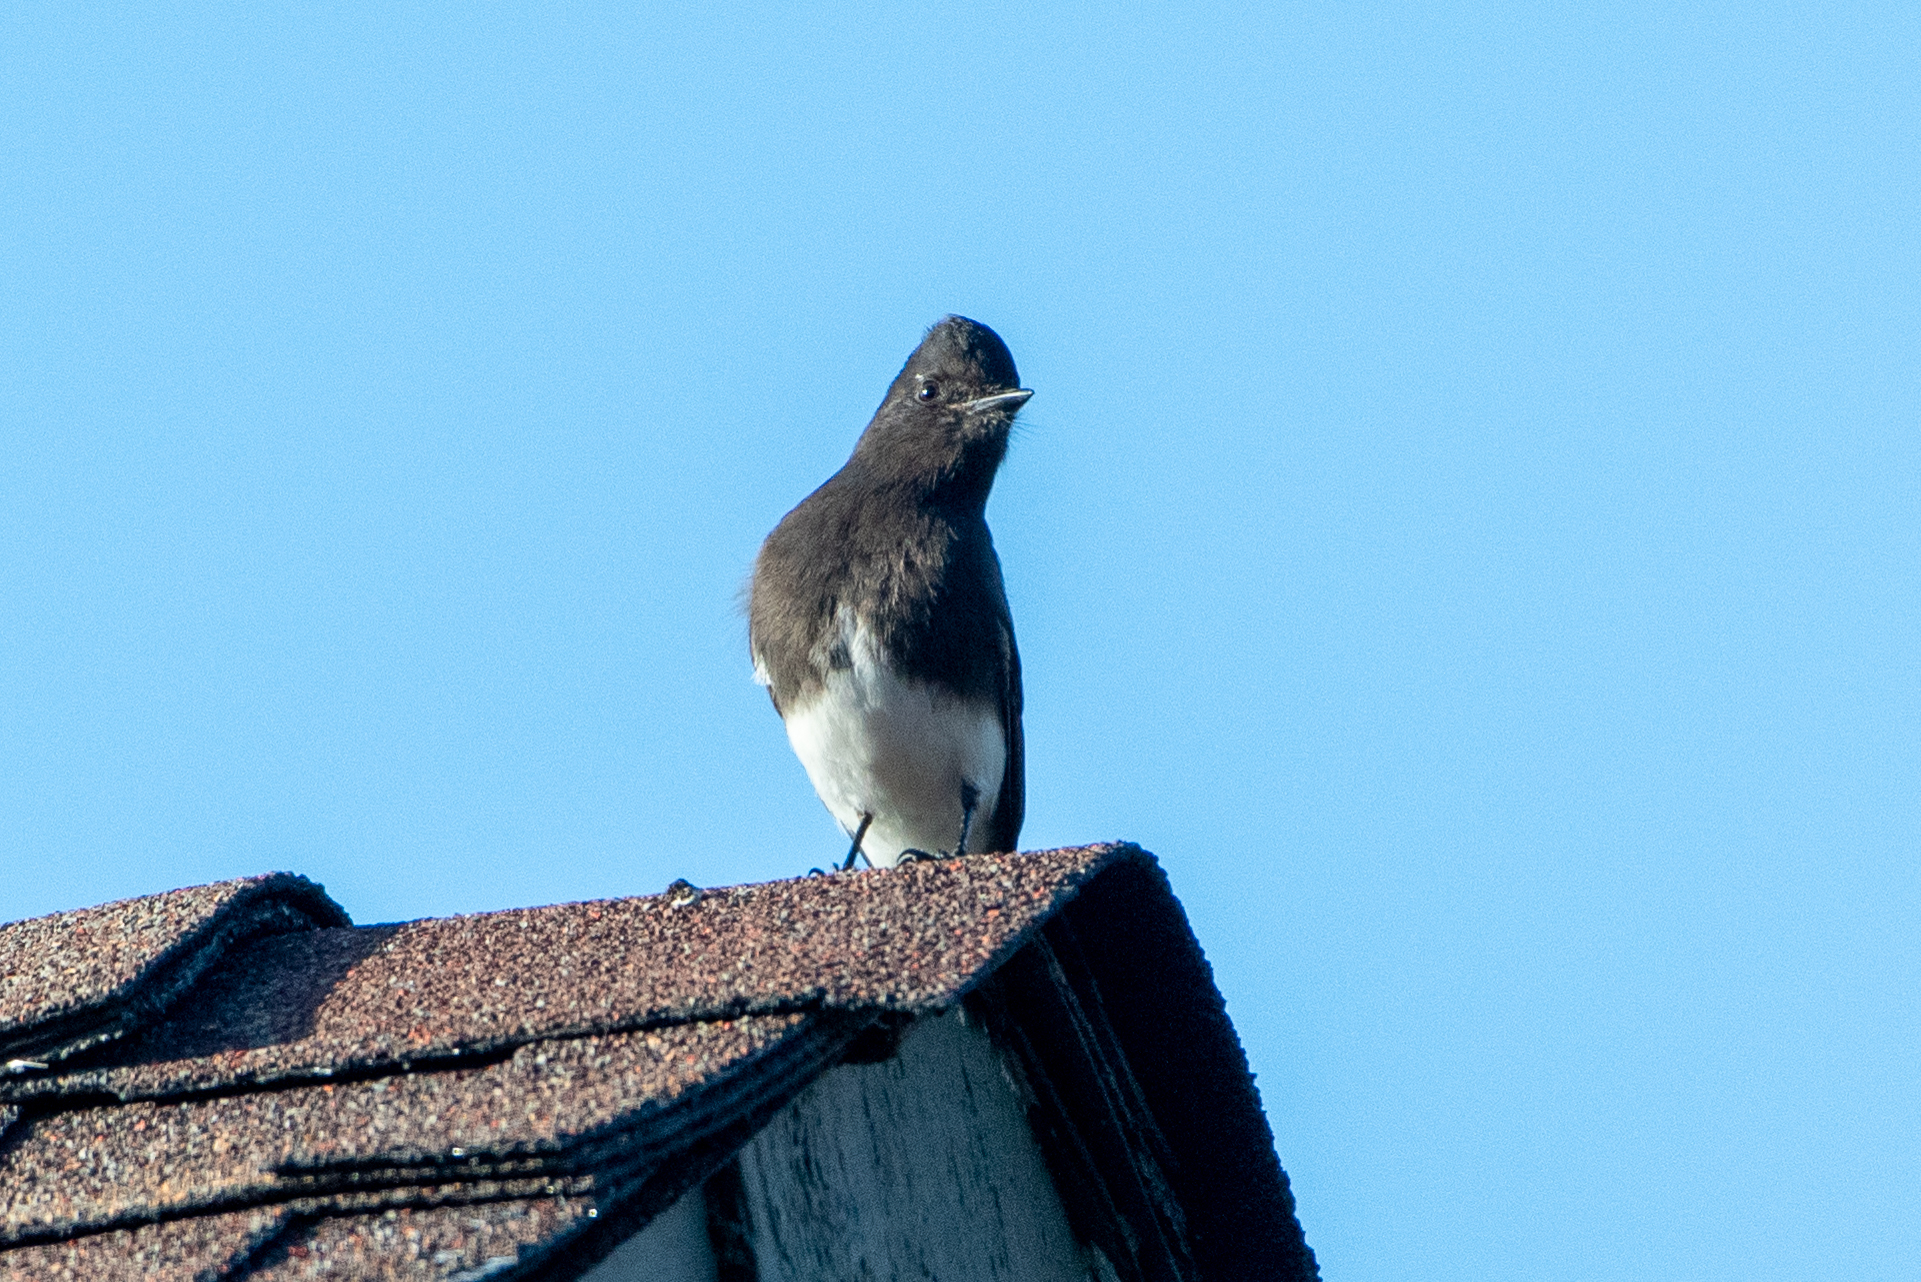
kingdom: Animalia
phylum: Chordata
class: Aves
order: Passeriformes
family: Tyrannidae
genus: Sayornis
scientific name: Sayornis nigricans
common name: Black phoebe
